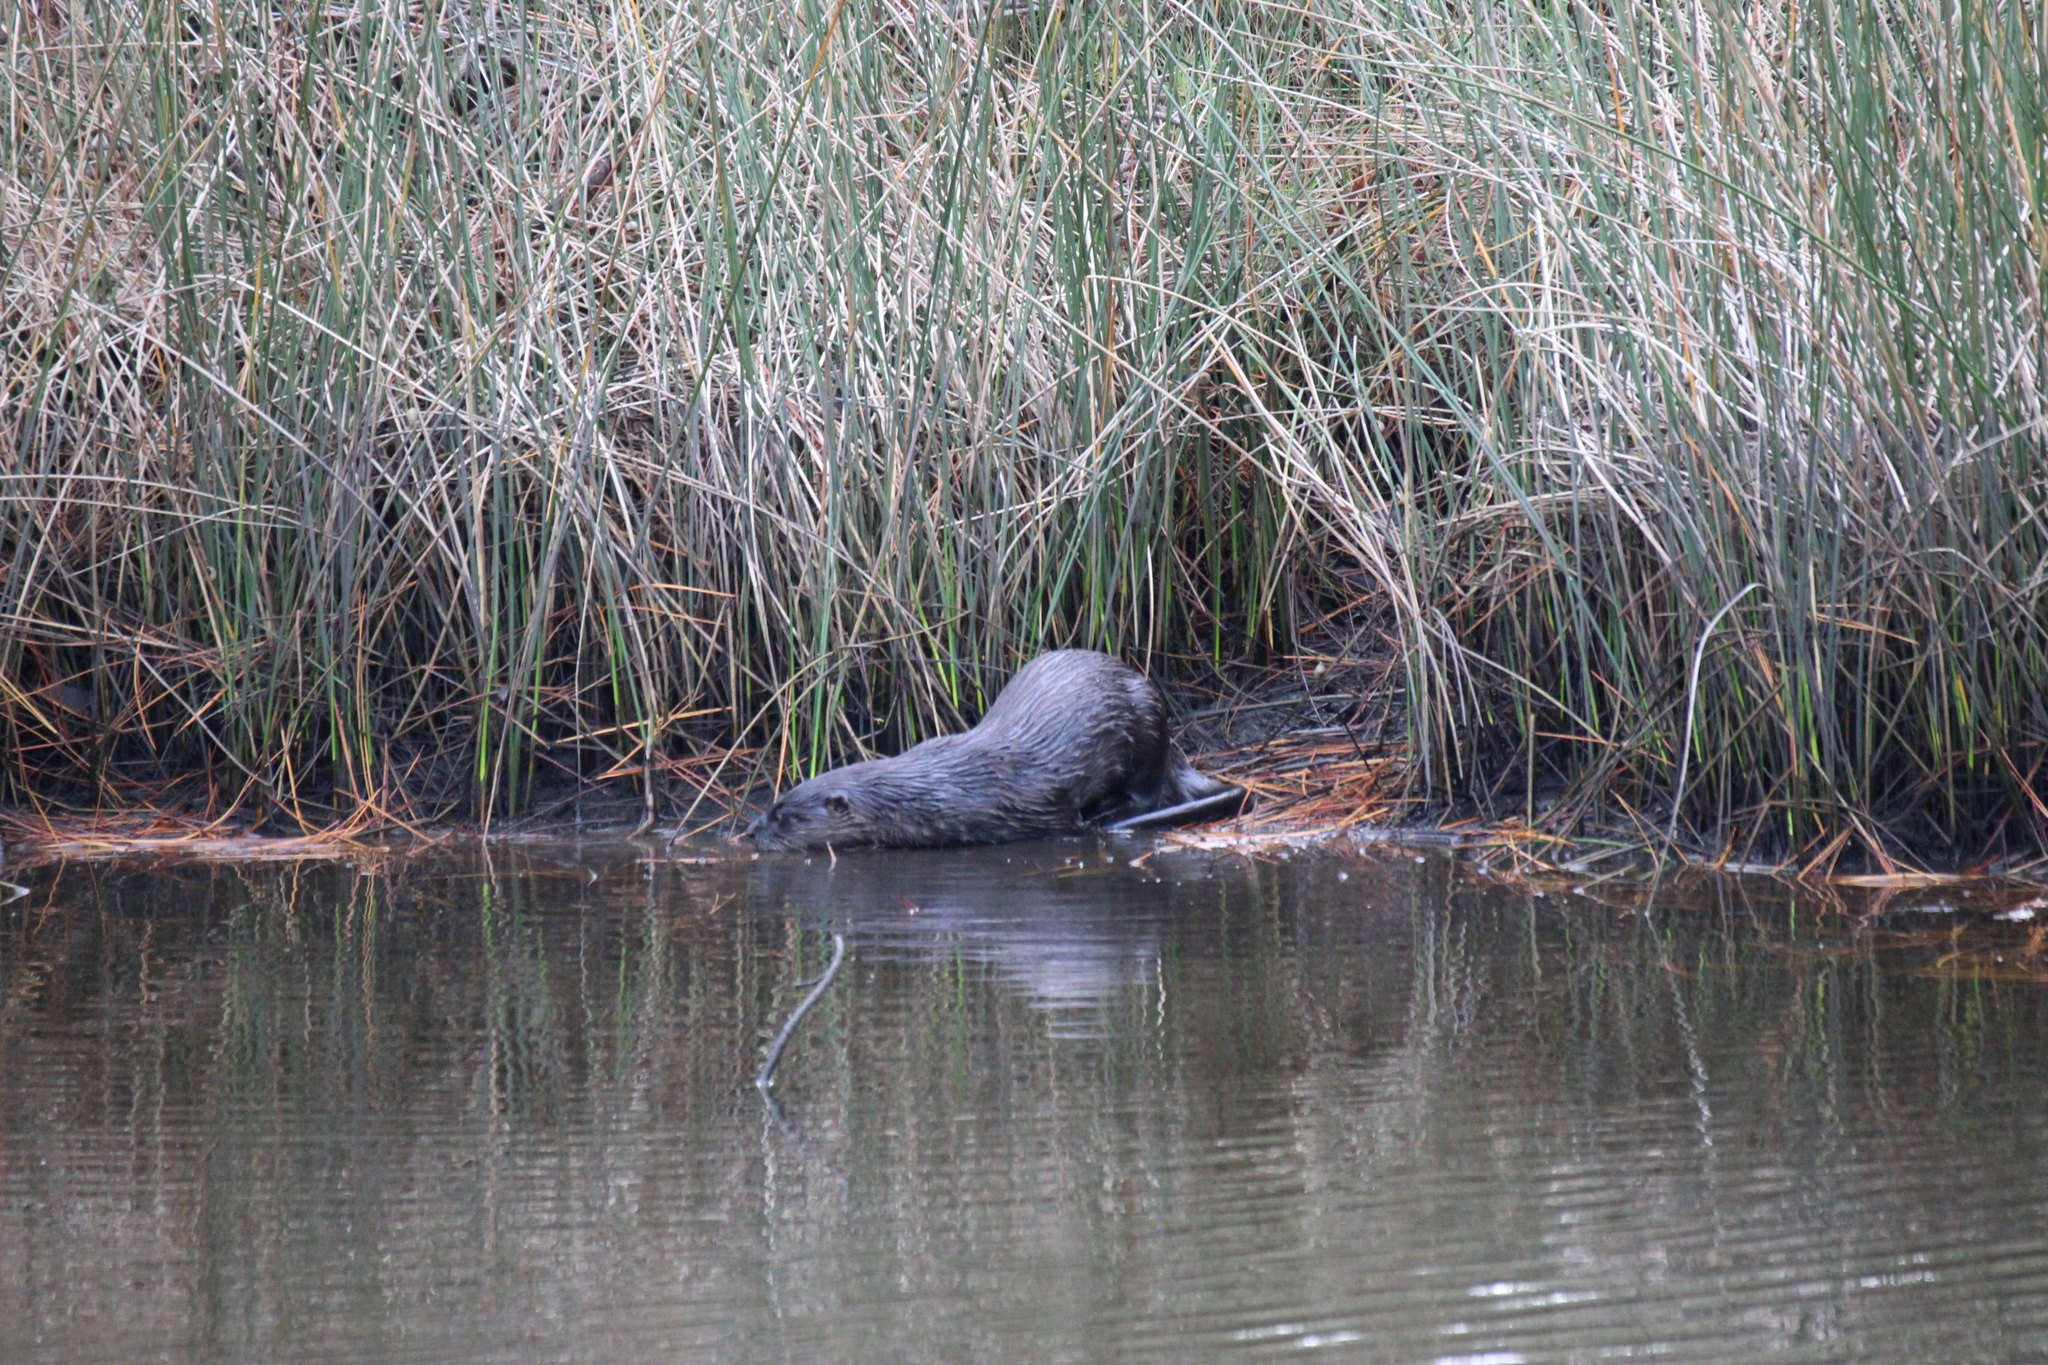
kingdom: Animalia
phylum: Chordata
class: Mammalia
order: Carnivora
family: Mustelidae
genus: Lontra
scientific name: Lontra canadensis
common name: North american river otter
